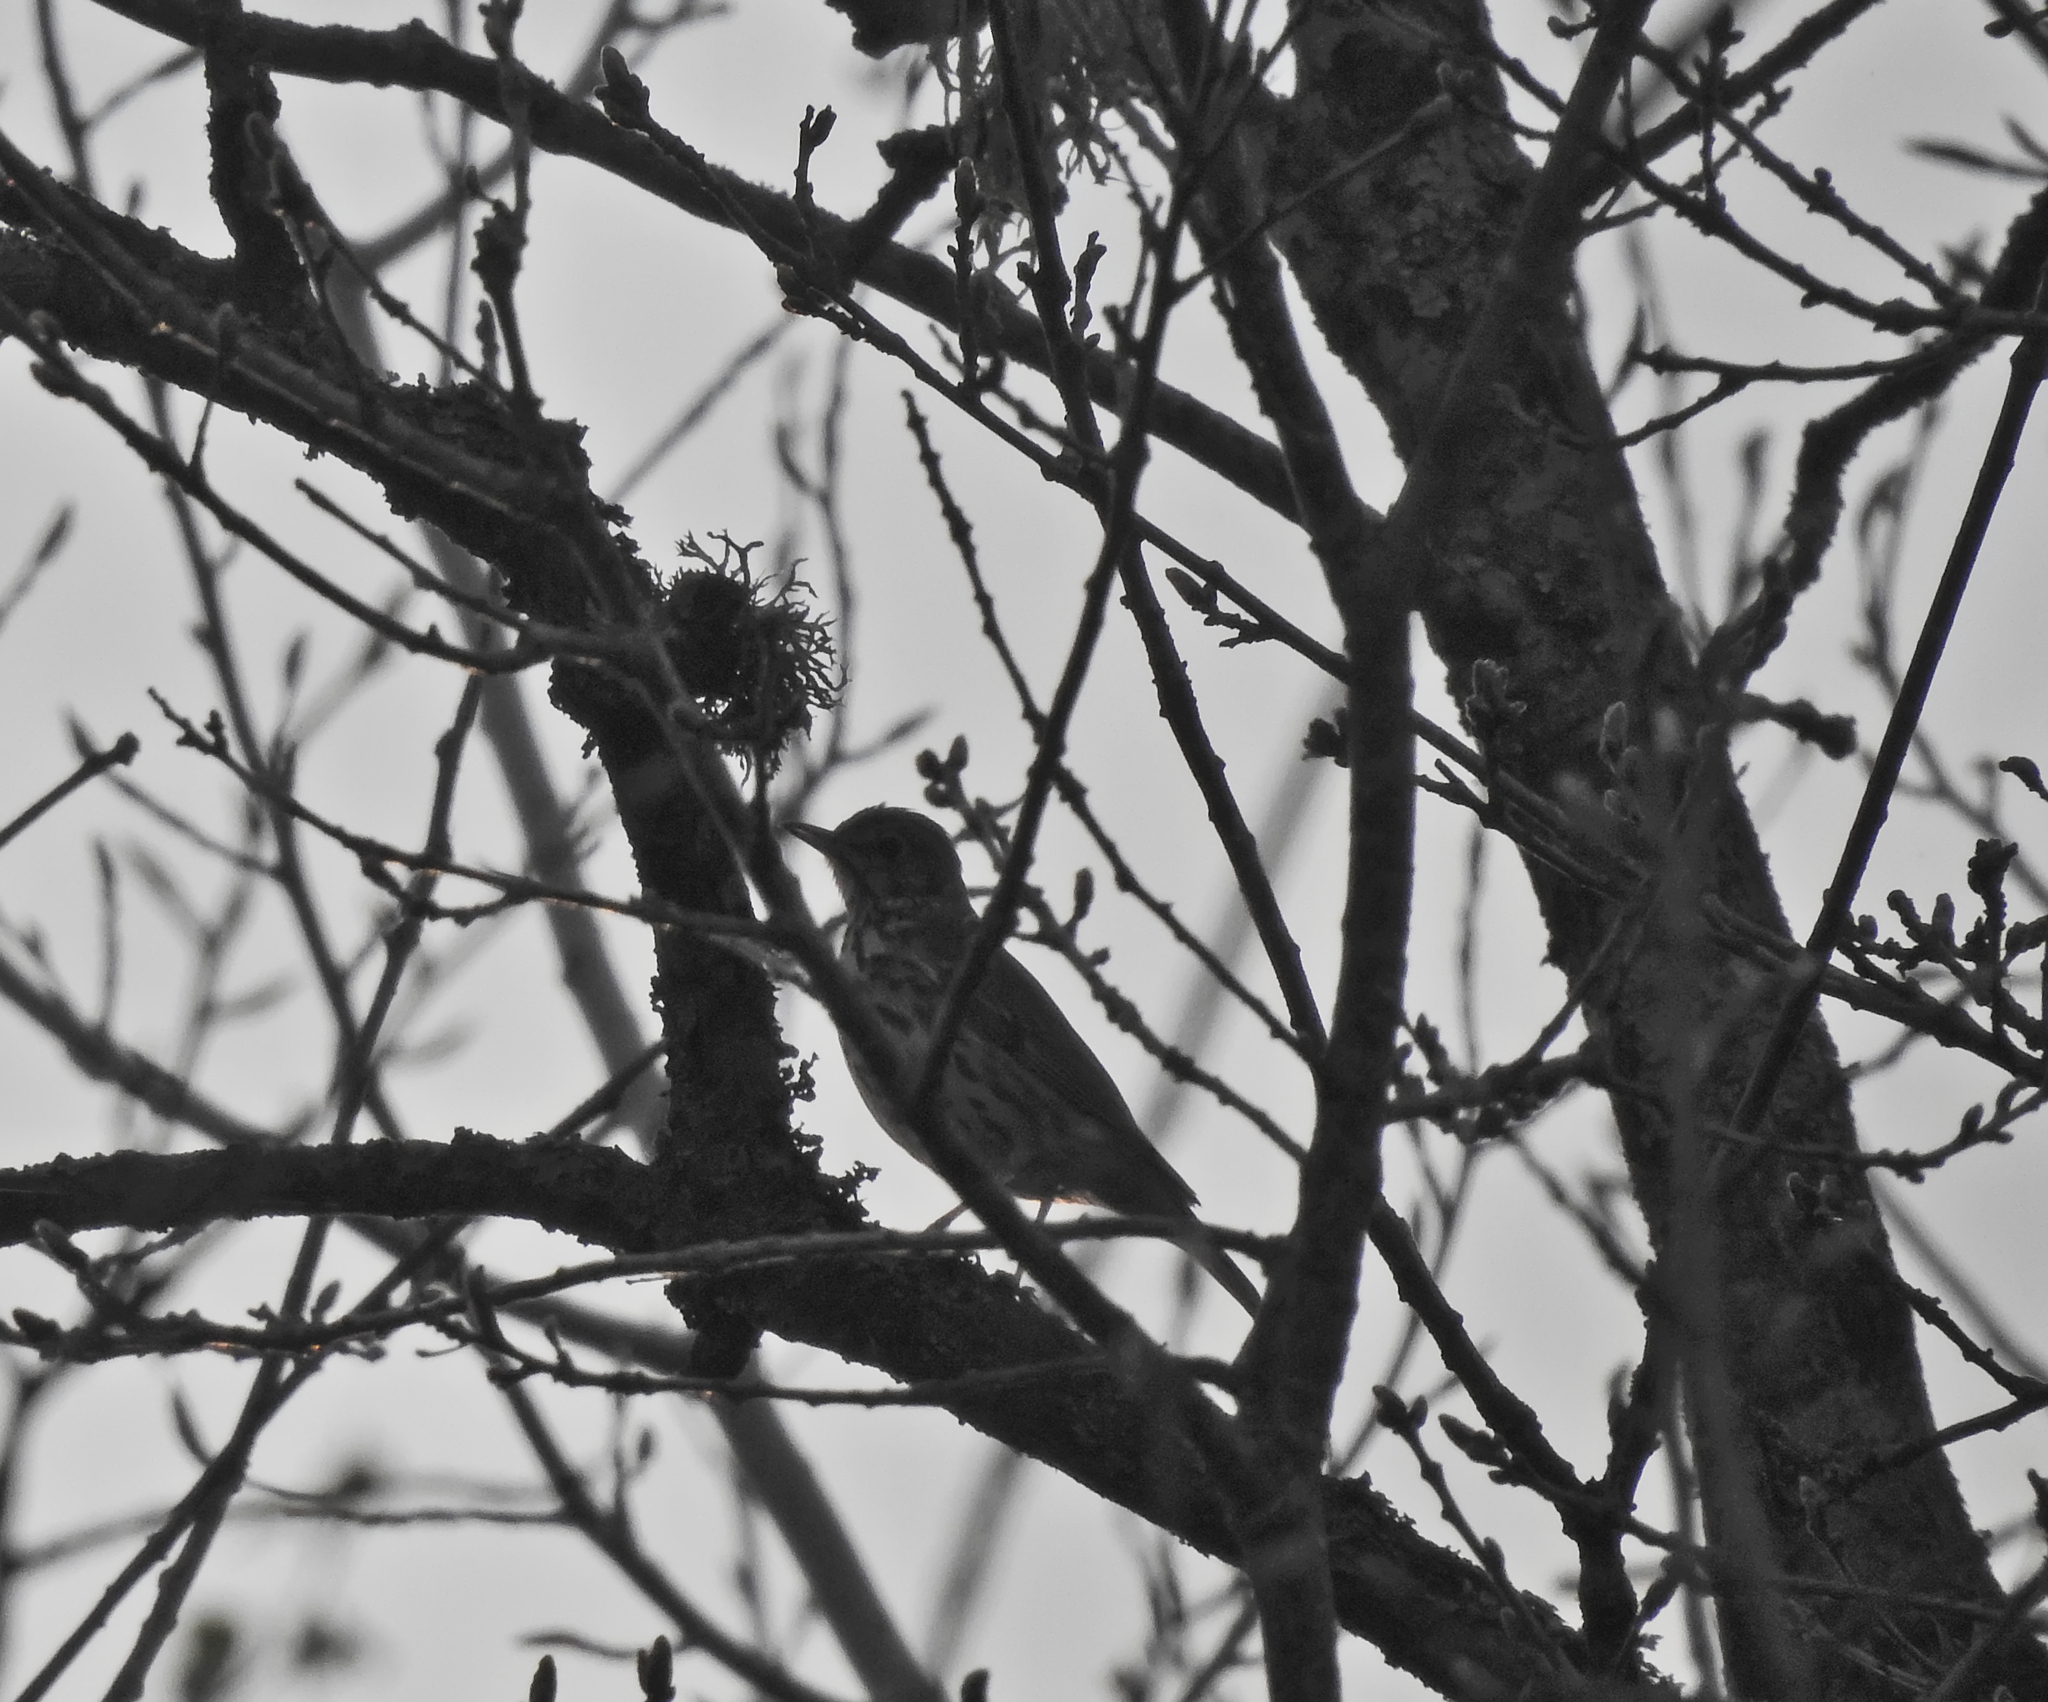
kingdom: Animalia
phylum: Chordata
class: Aves
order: Passeriformes
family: Turdidae
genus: Turdus
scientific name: Turdus philomelos
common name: Song thrush
